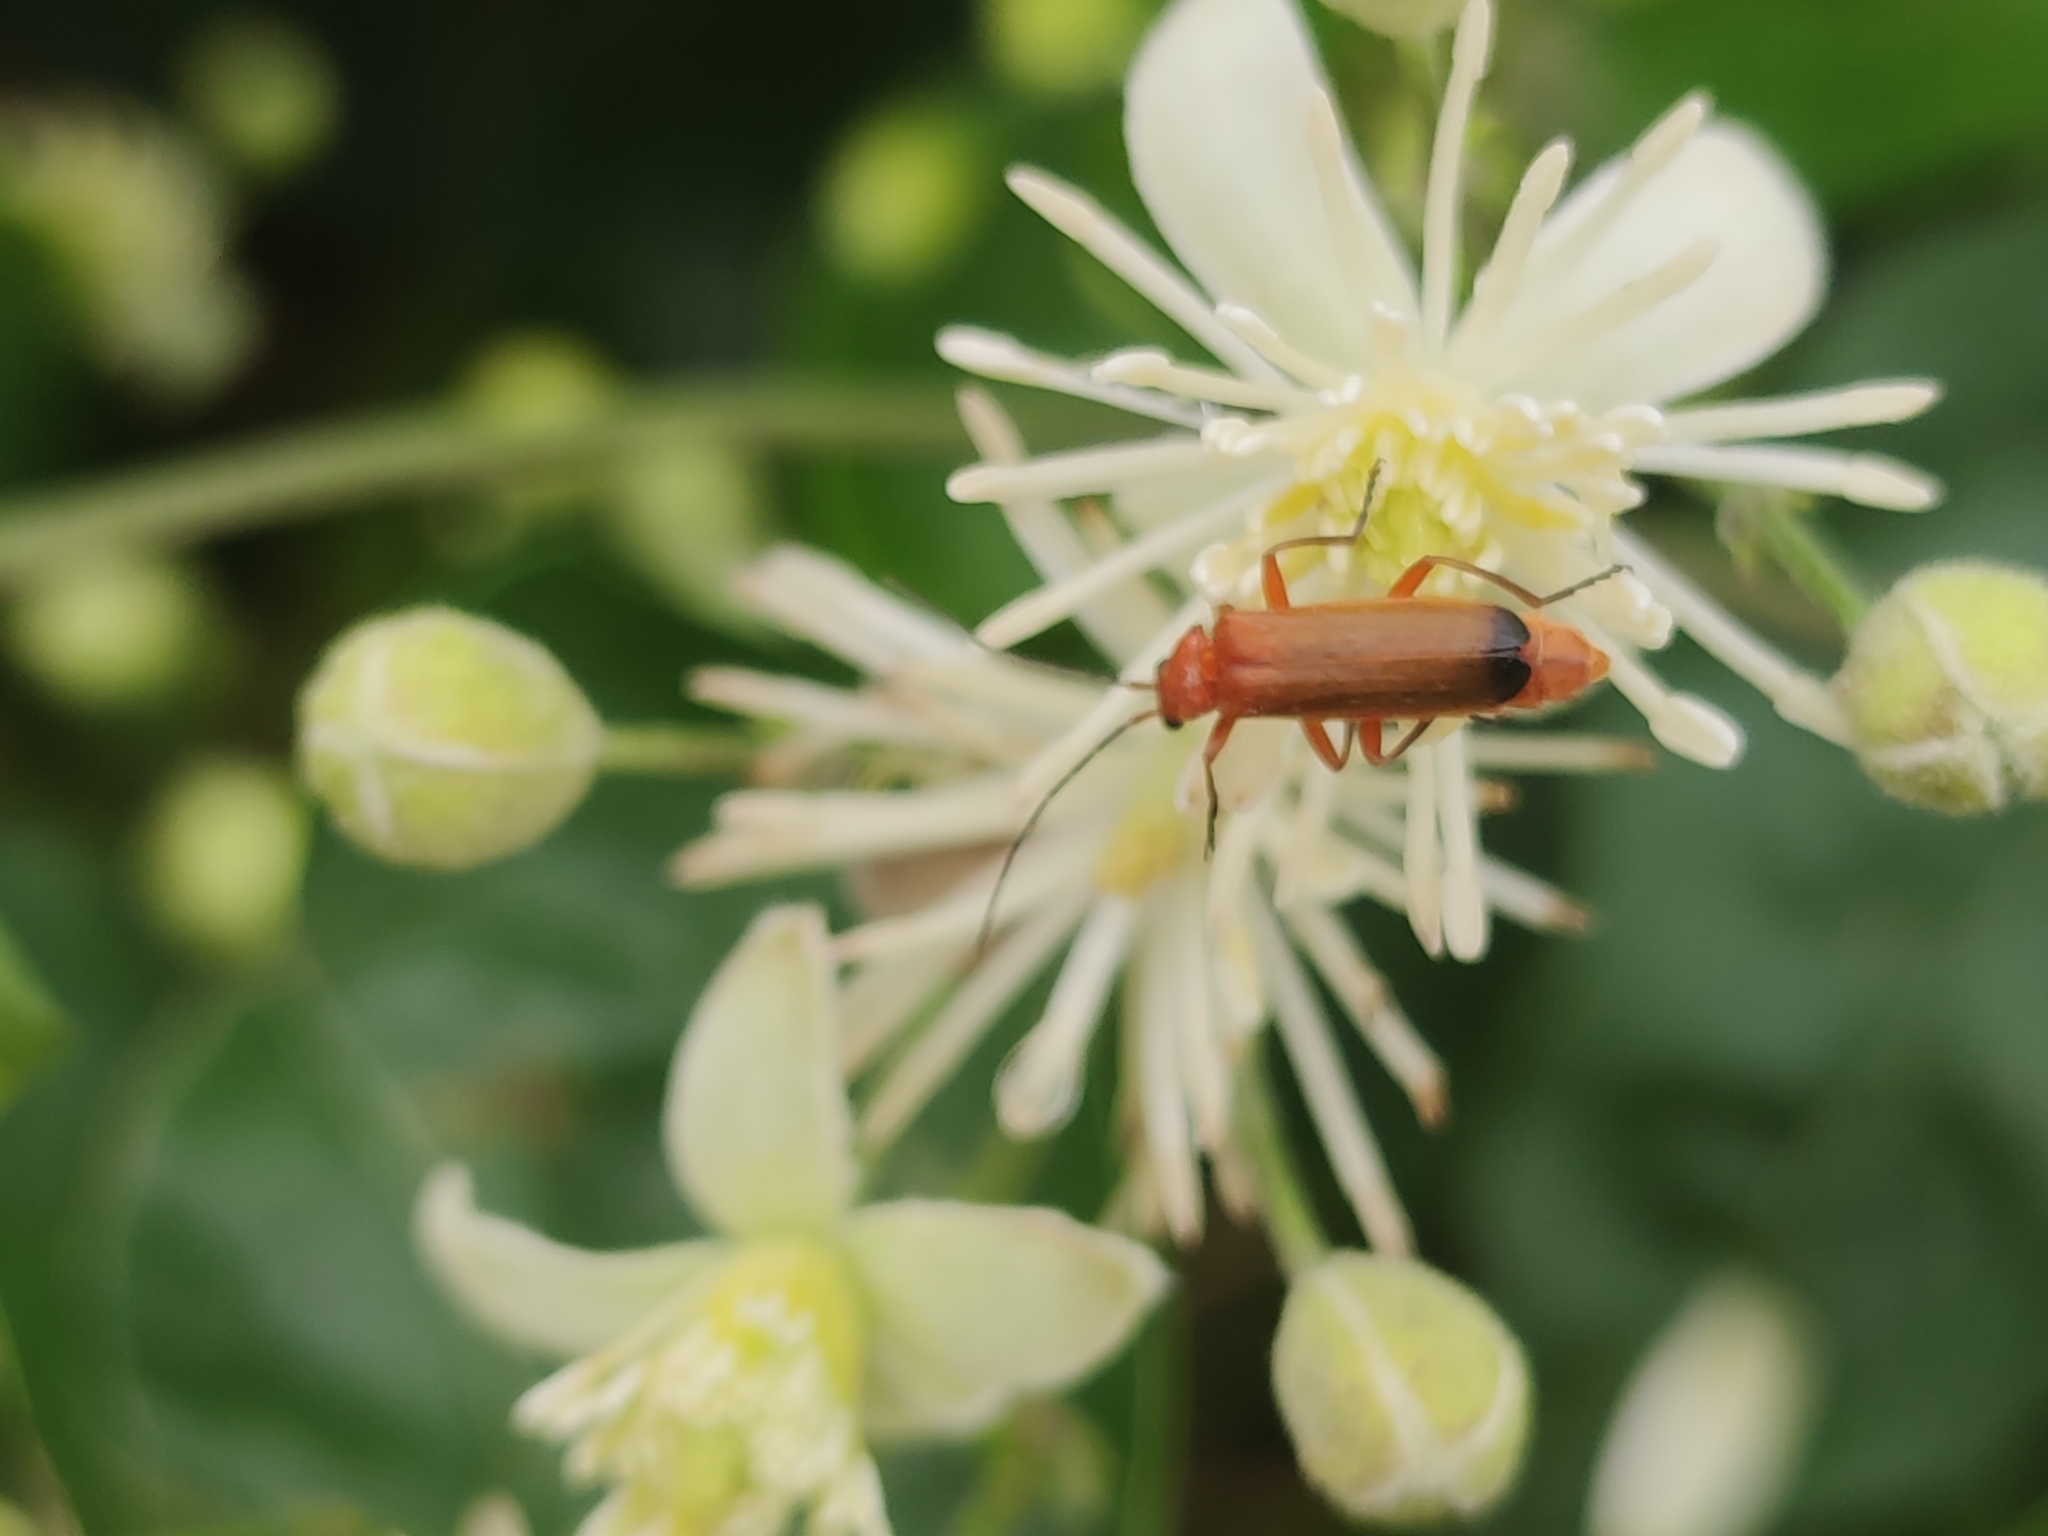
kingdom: Animalia
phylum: Arthropoda
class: Insecta
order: Coleoptera
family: Cantharidae
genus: Rhagonycha
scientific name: Rhagonycha fulva
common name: Common red soldier beetle
